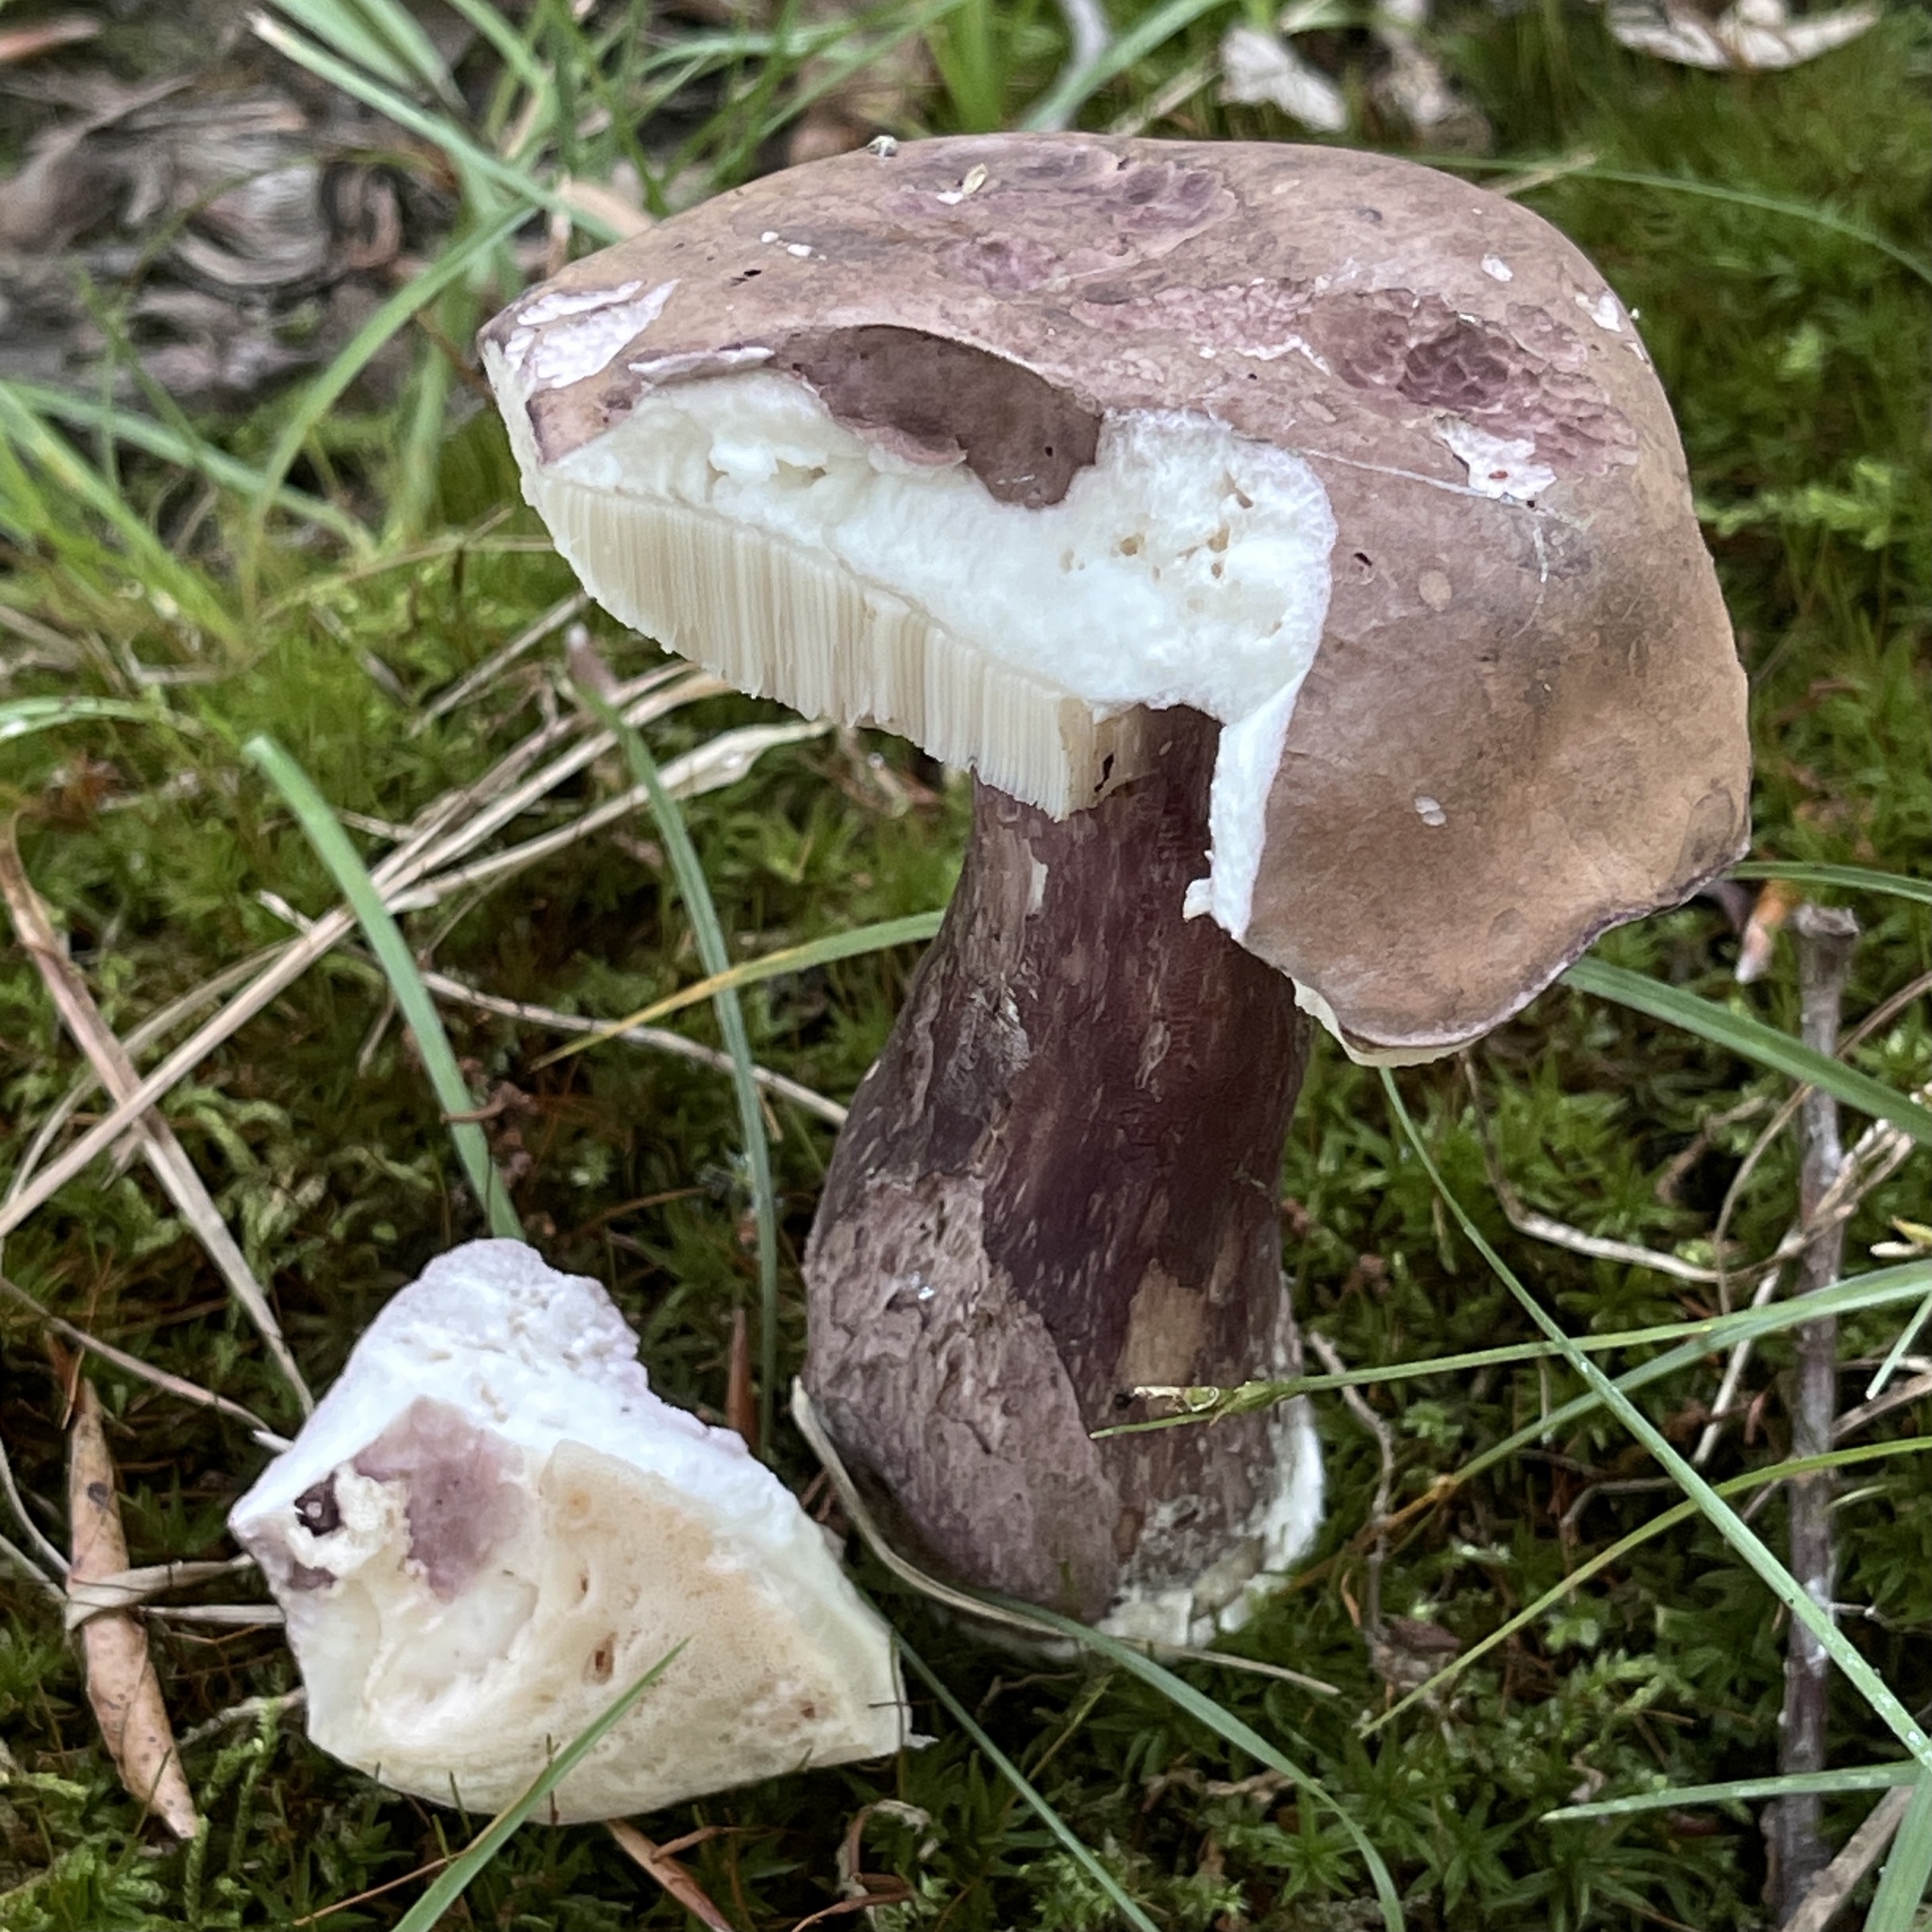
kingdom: Fungi
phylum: Basidiomycota
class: Agaricomycetes
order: Boletales
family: Boletaceae
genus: Tylopilus
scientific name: Tylopilus plumbeoviolaceus
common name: Violet gray bolete
